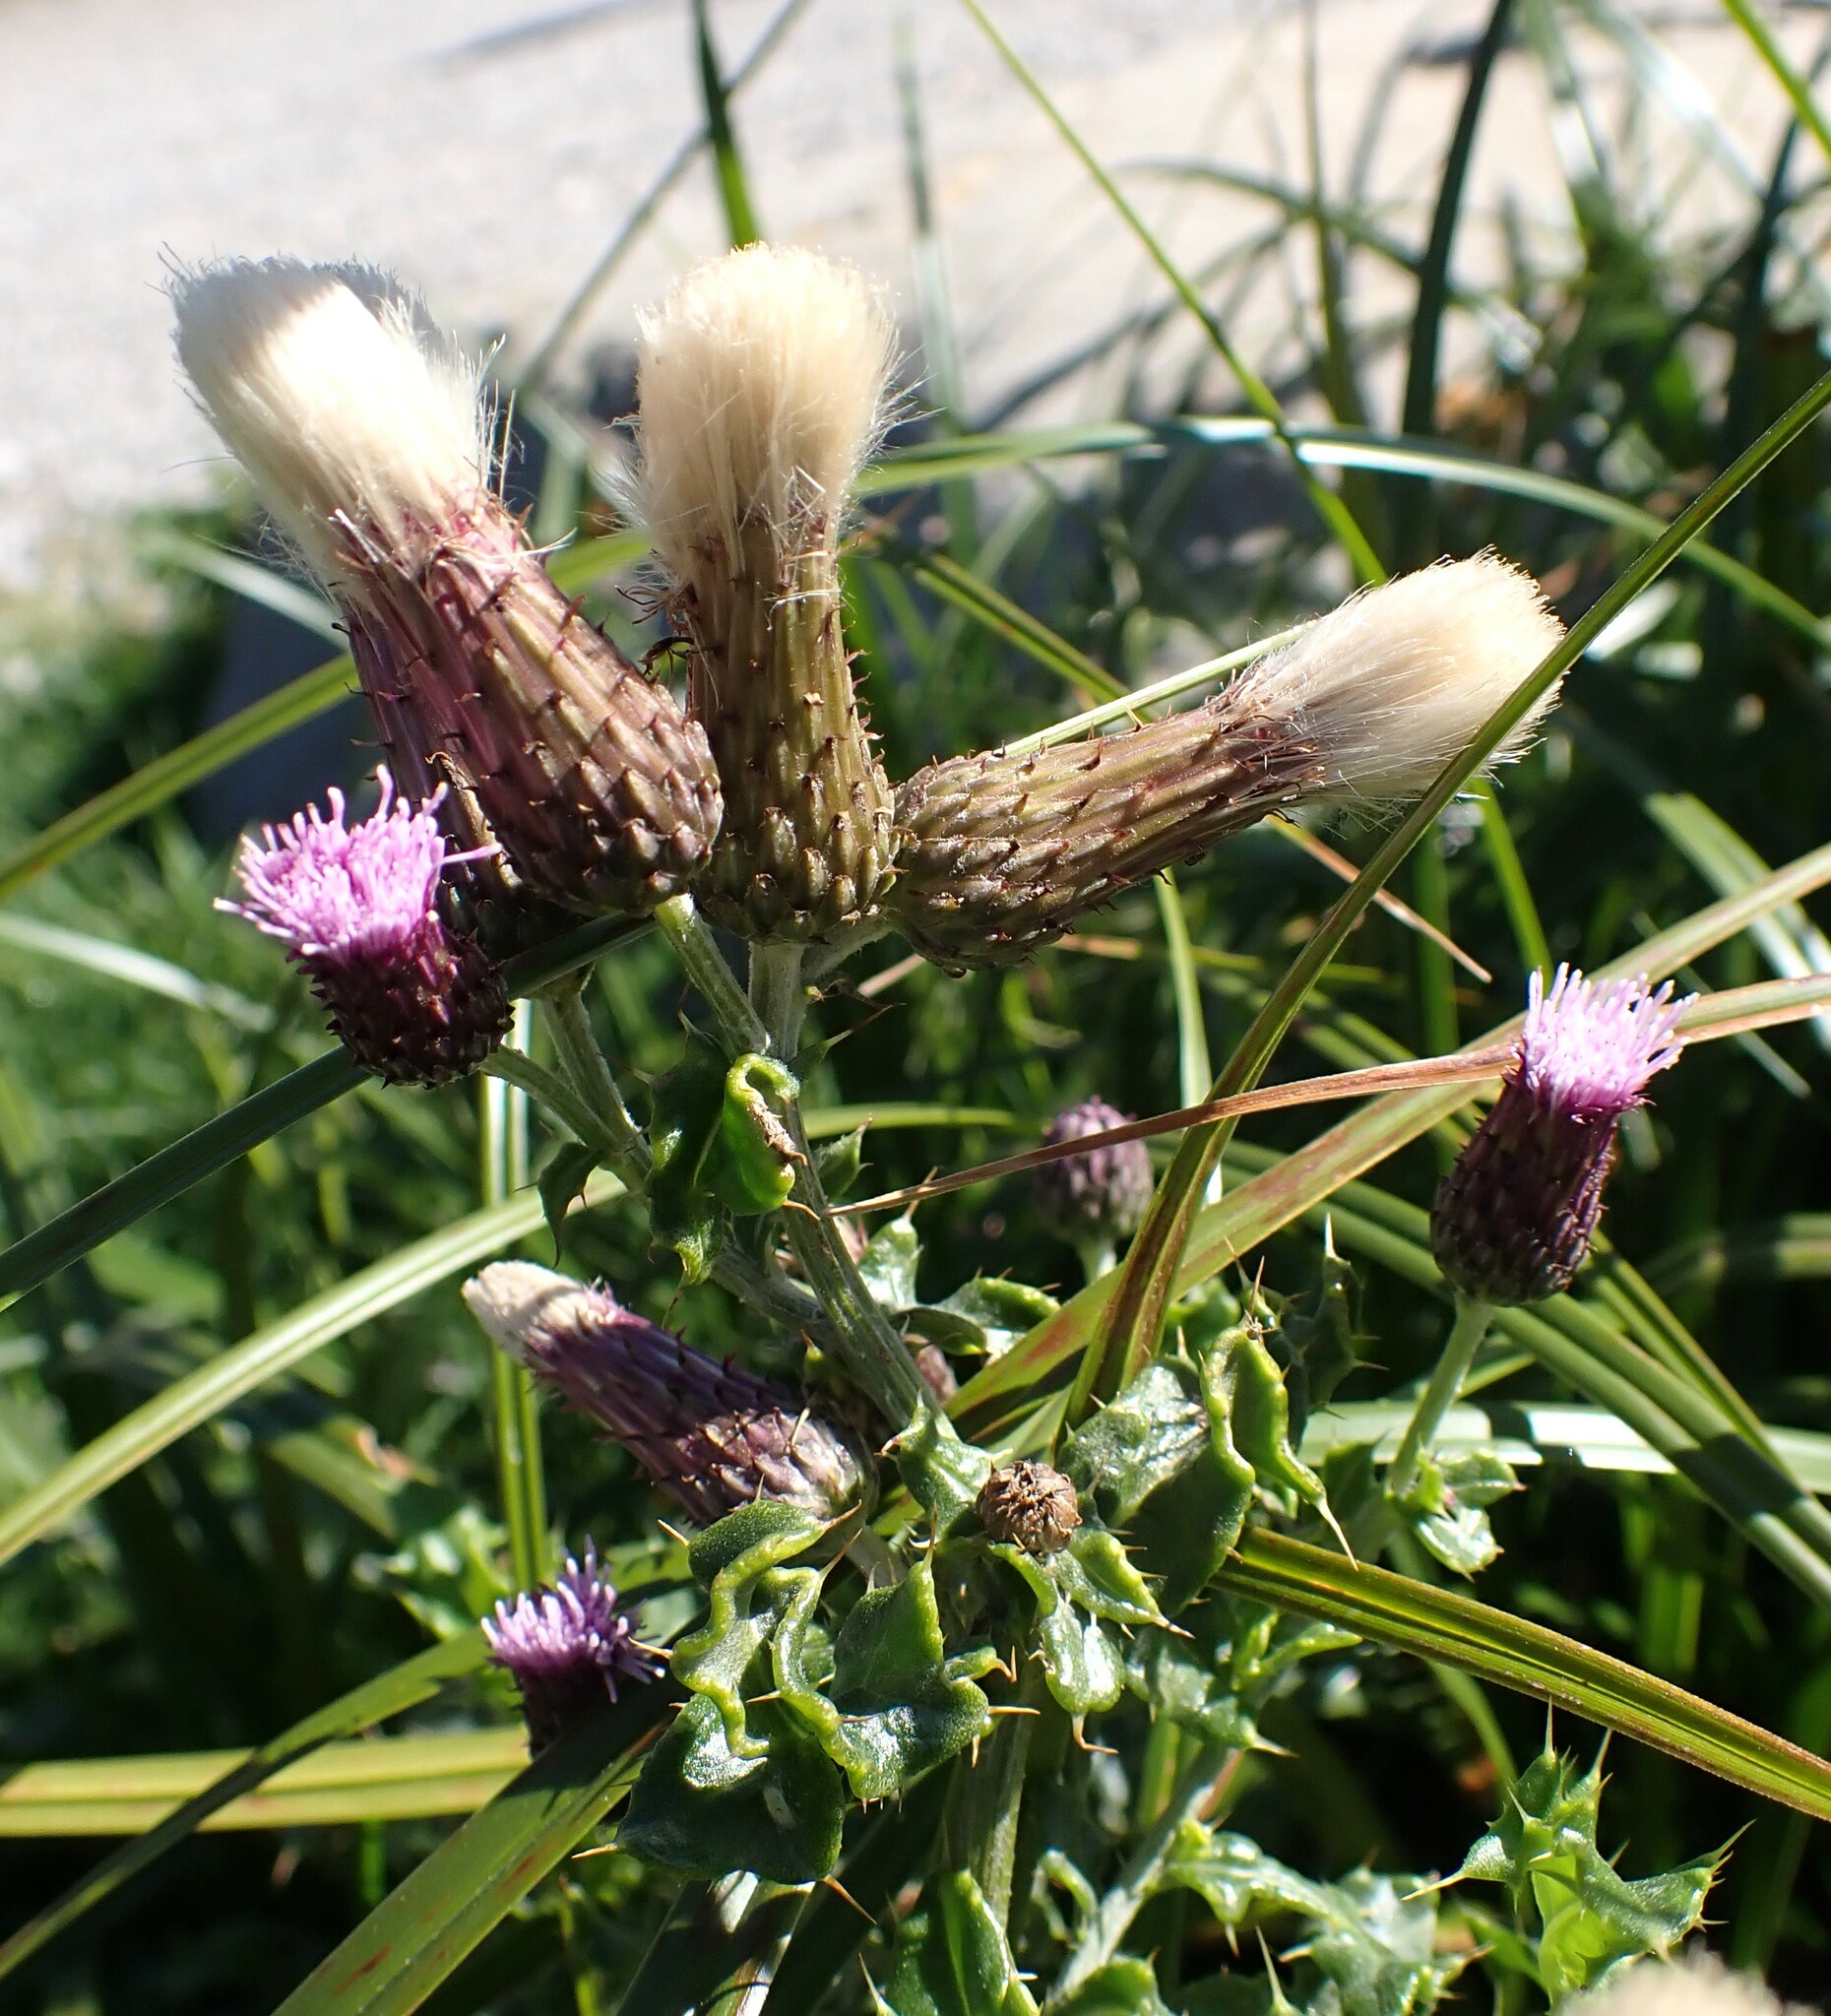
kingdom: Plantae
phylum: Tracheophyta
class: Magnoliopsida
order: Asterales
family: Asteraceae
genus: Cirsium
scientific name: Cirsium arvense
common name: Creeping thistle
